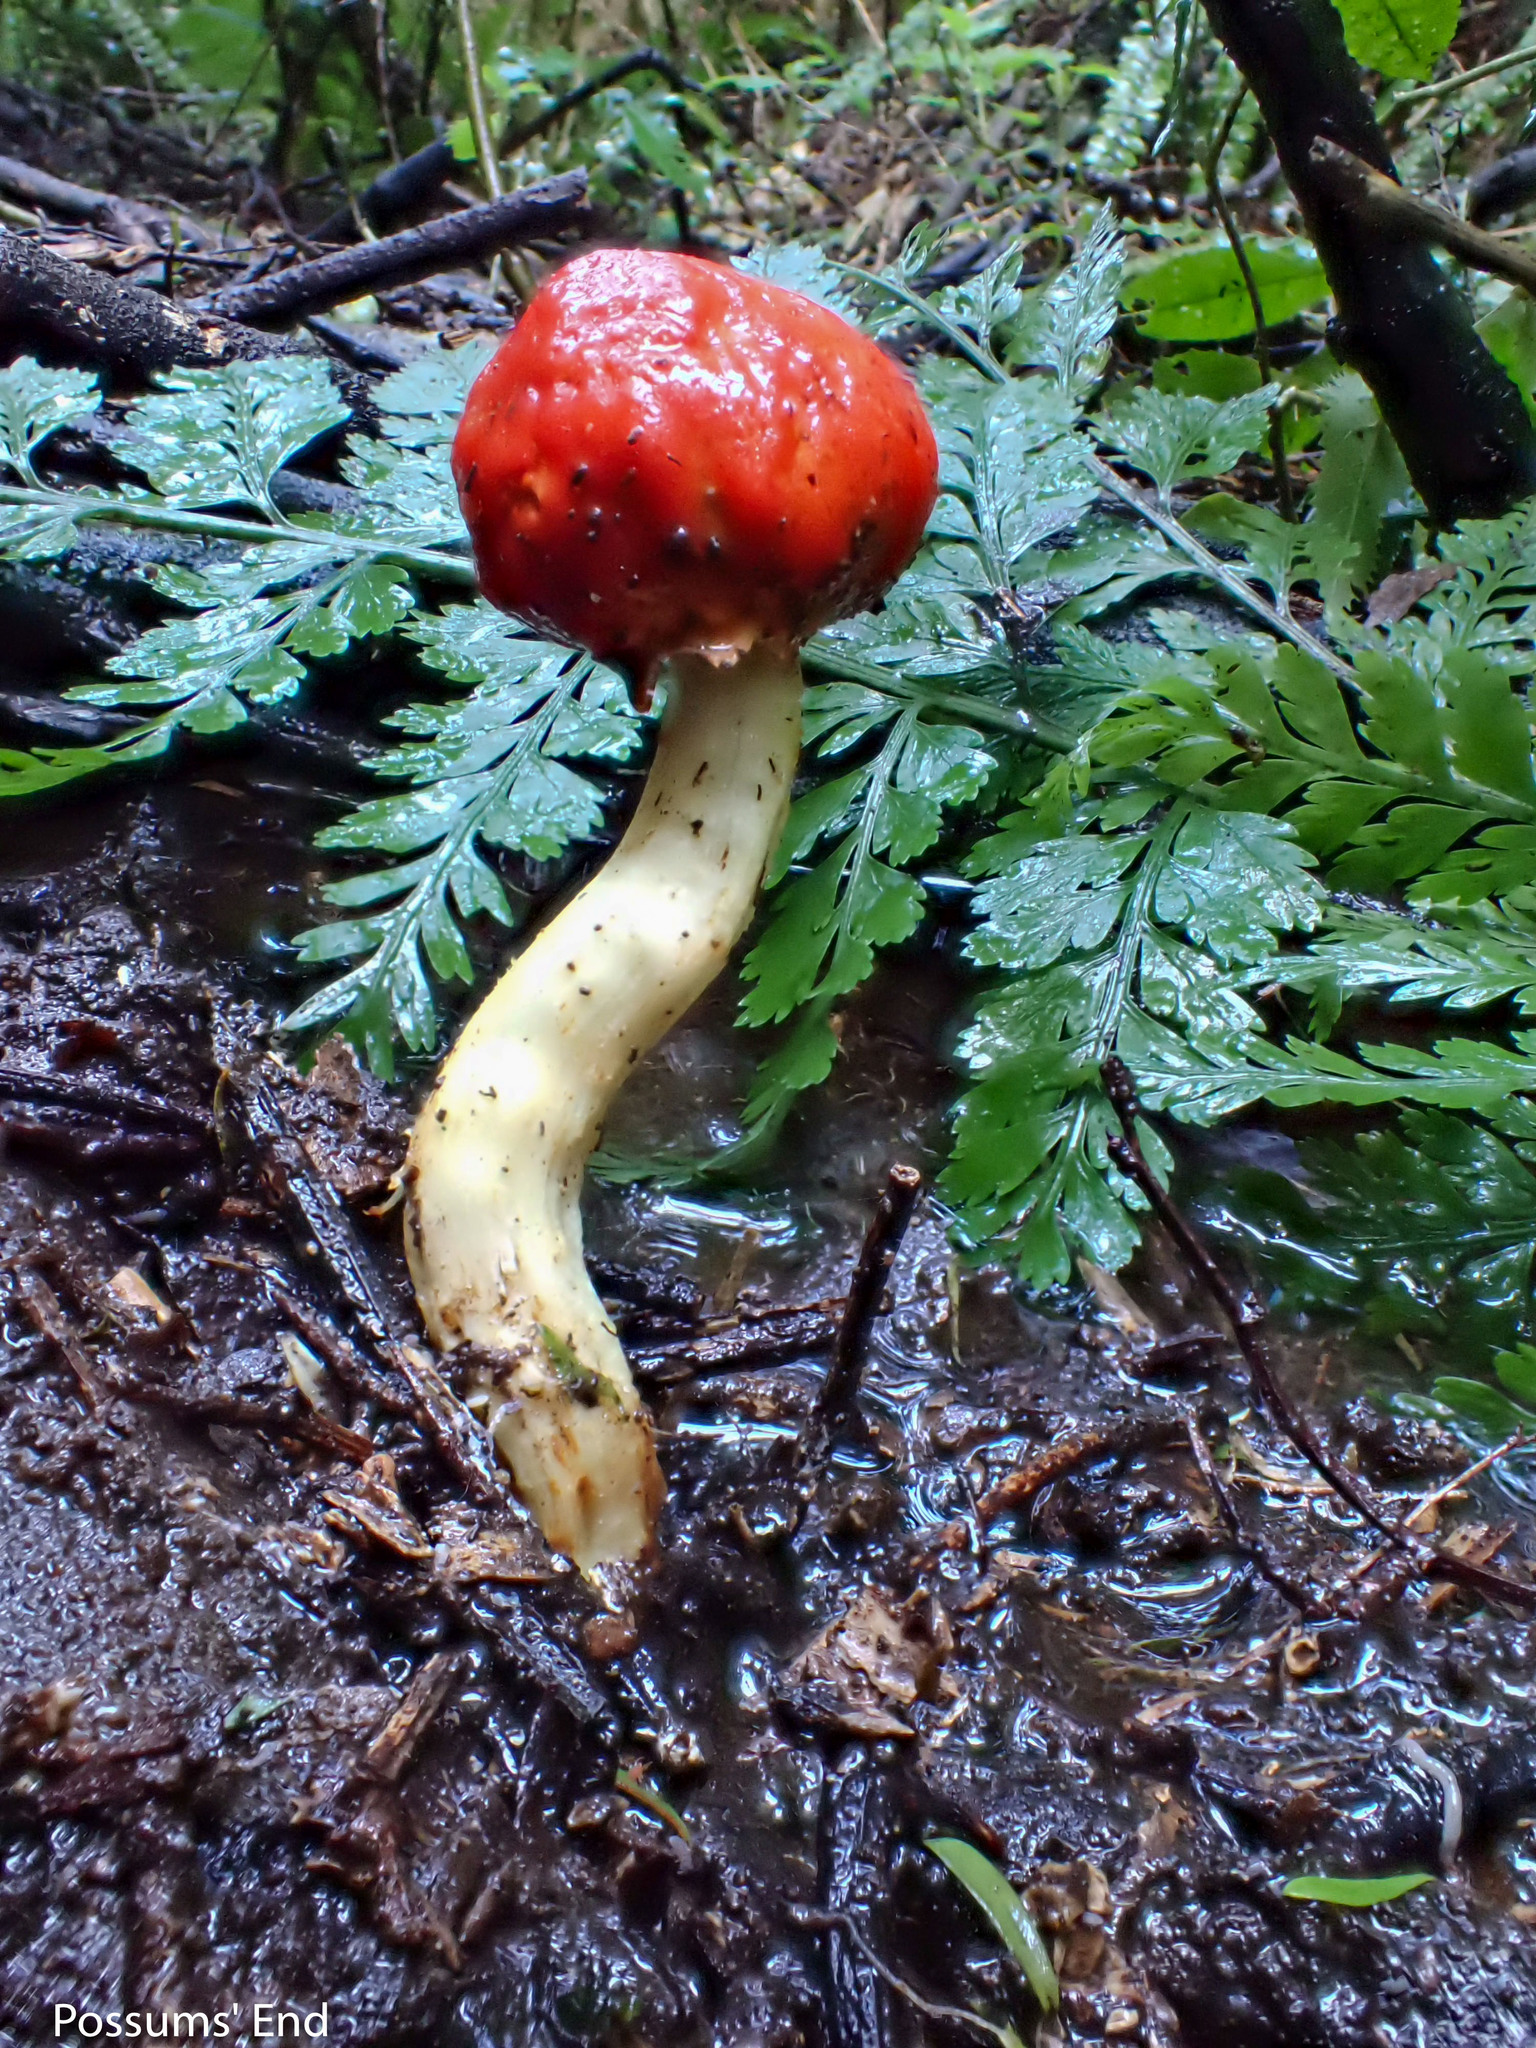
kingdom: Fungi
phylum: Basidiomycota
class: Agaricomycetes
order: Agaricales
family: Strophariaceae
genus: Leratiomyces
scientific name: Leratiomyces erythrocephalus
